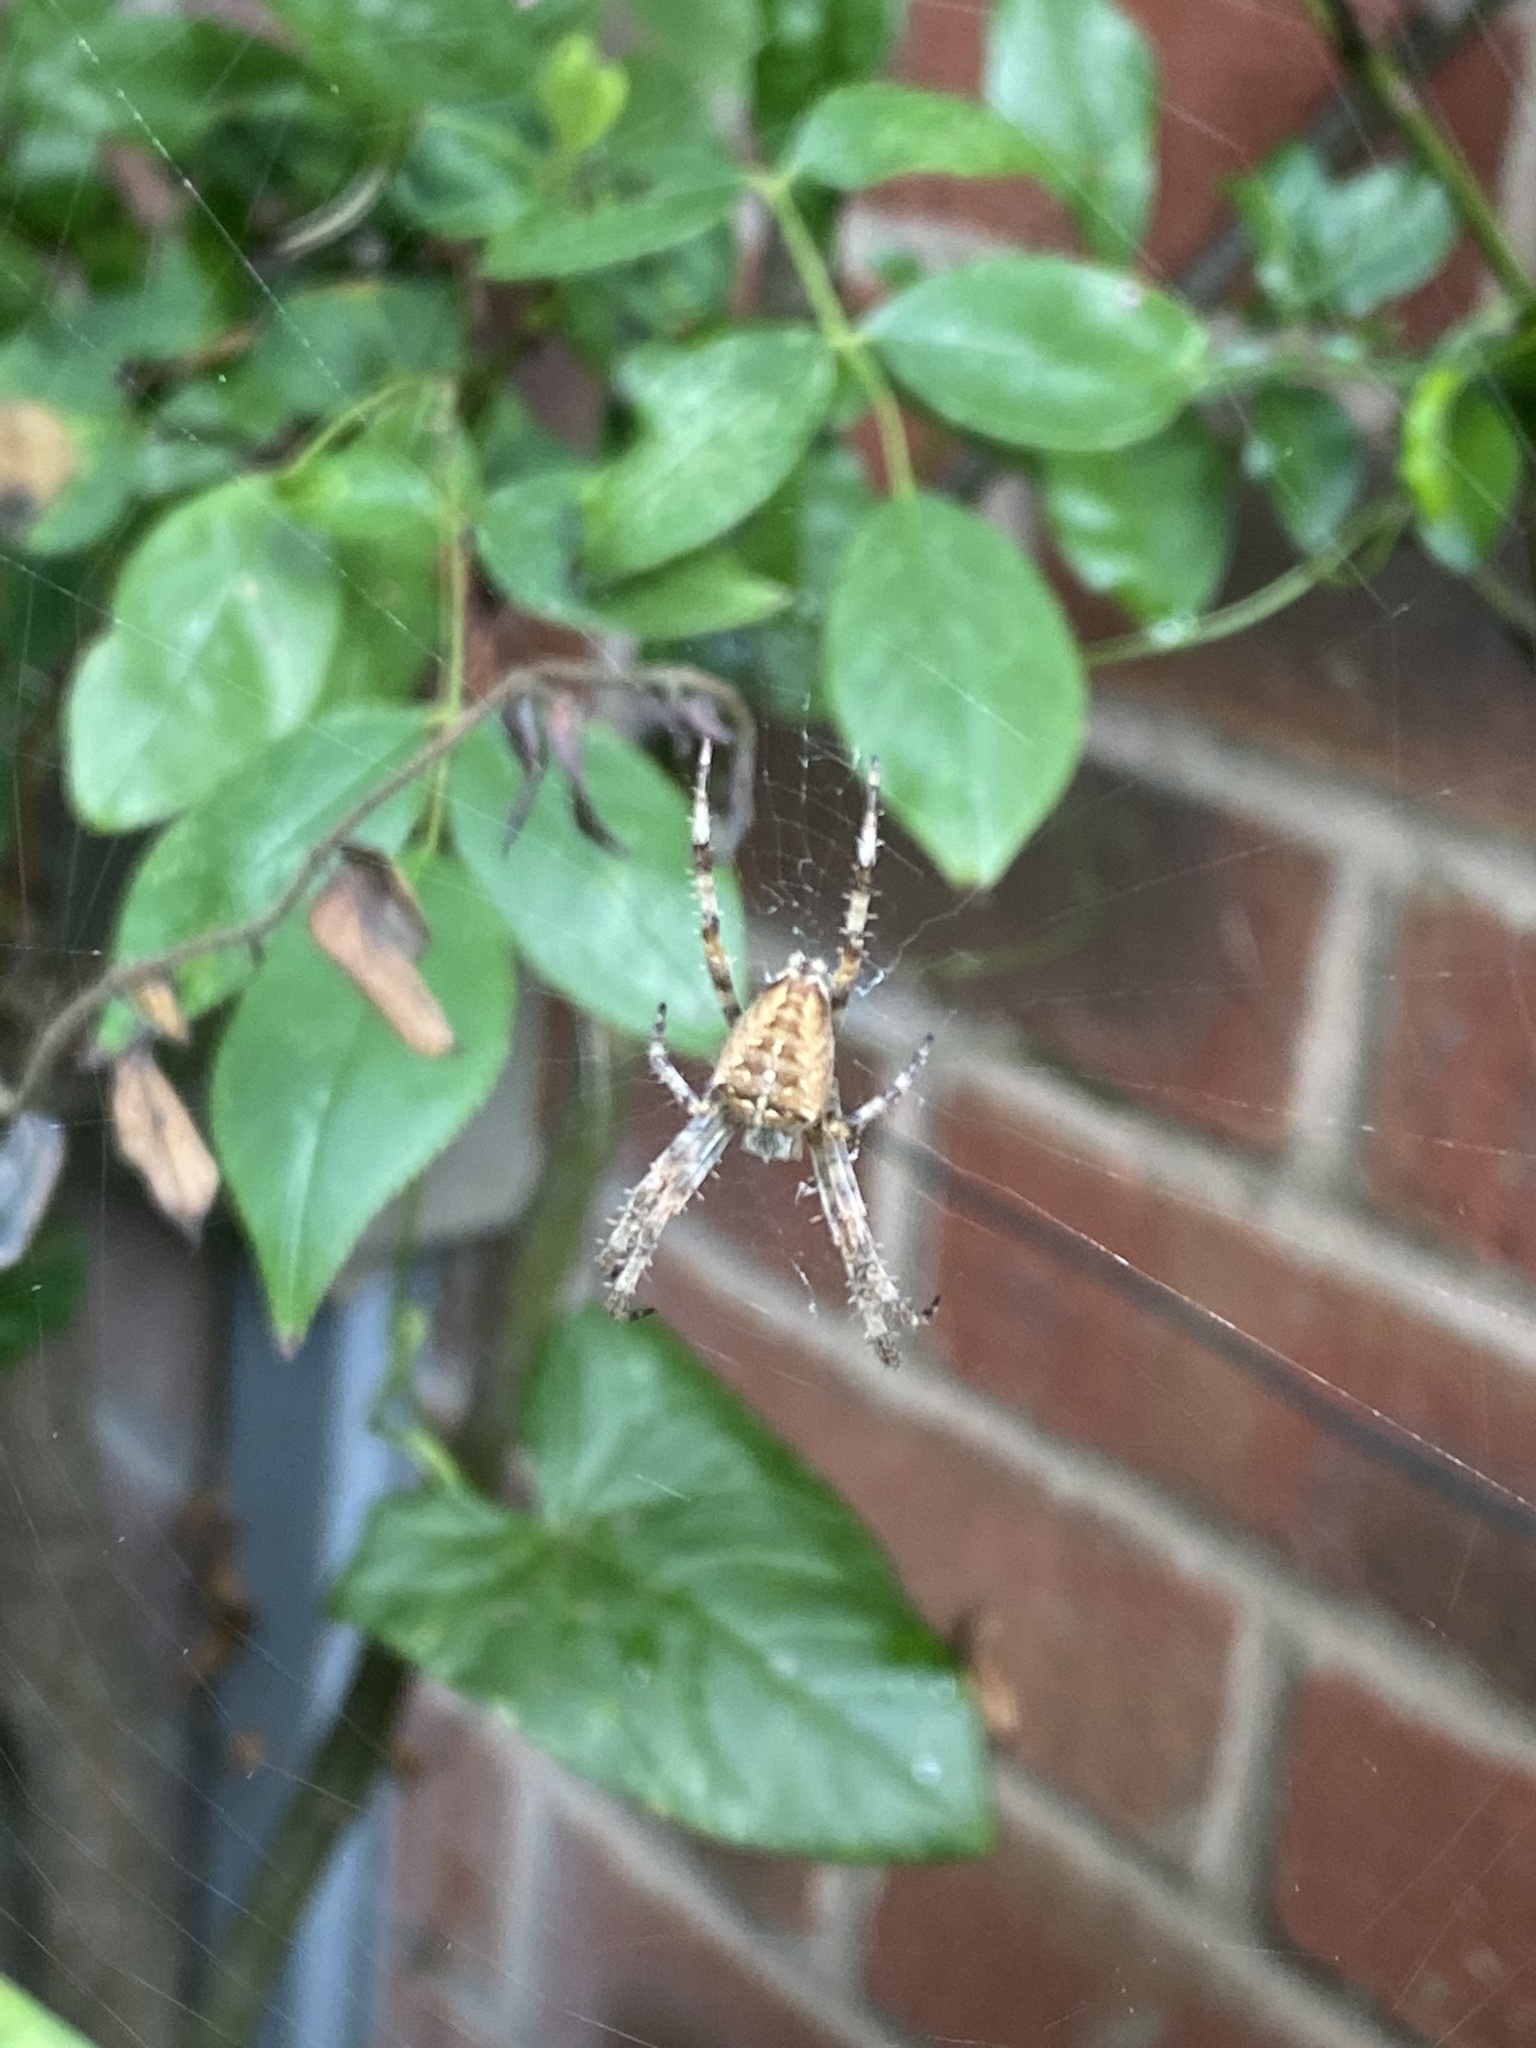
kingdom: Animalia
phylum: Arthropoda
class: Arachnida
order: Araneae
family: Araneidae
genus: Araneus
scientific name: Araneus diadematus
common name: Cross orbweaver
